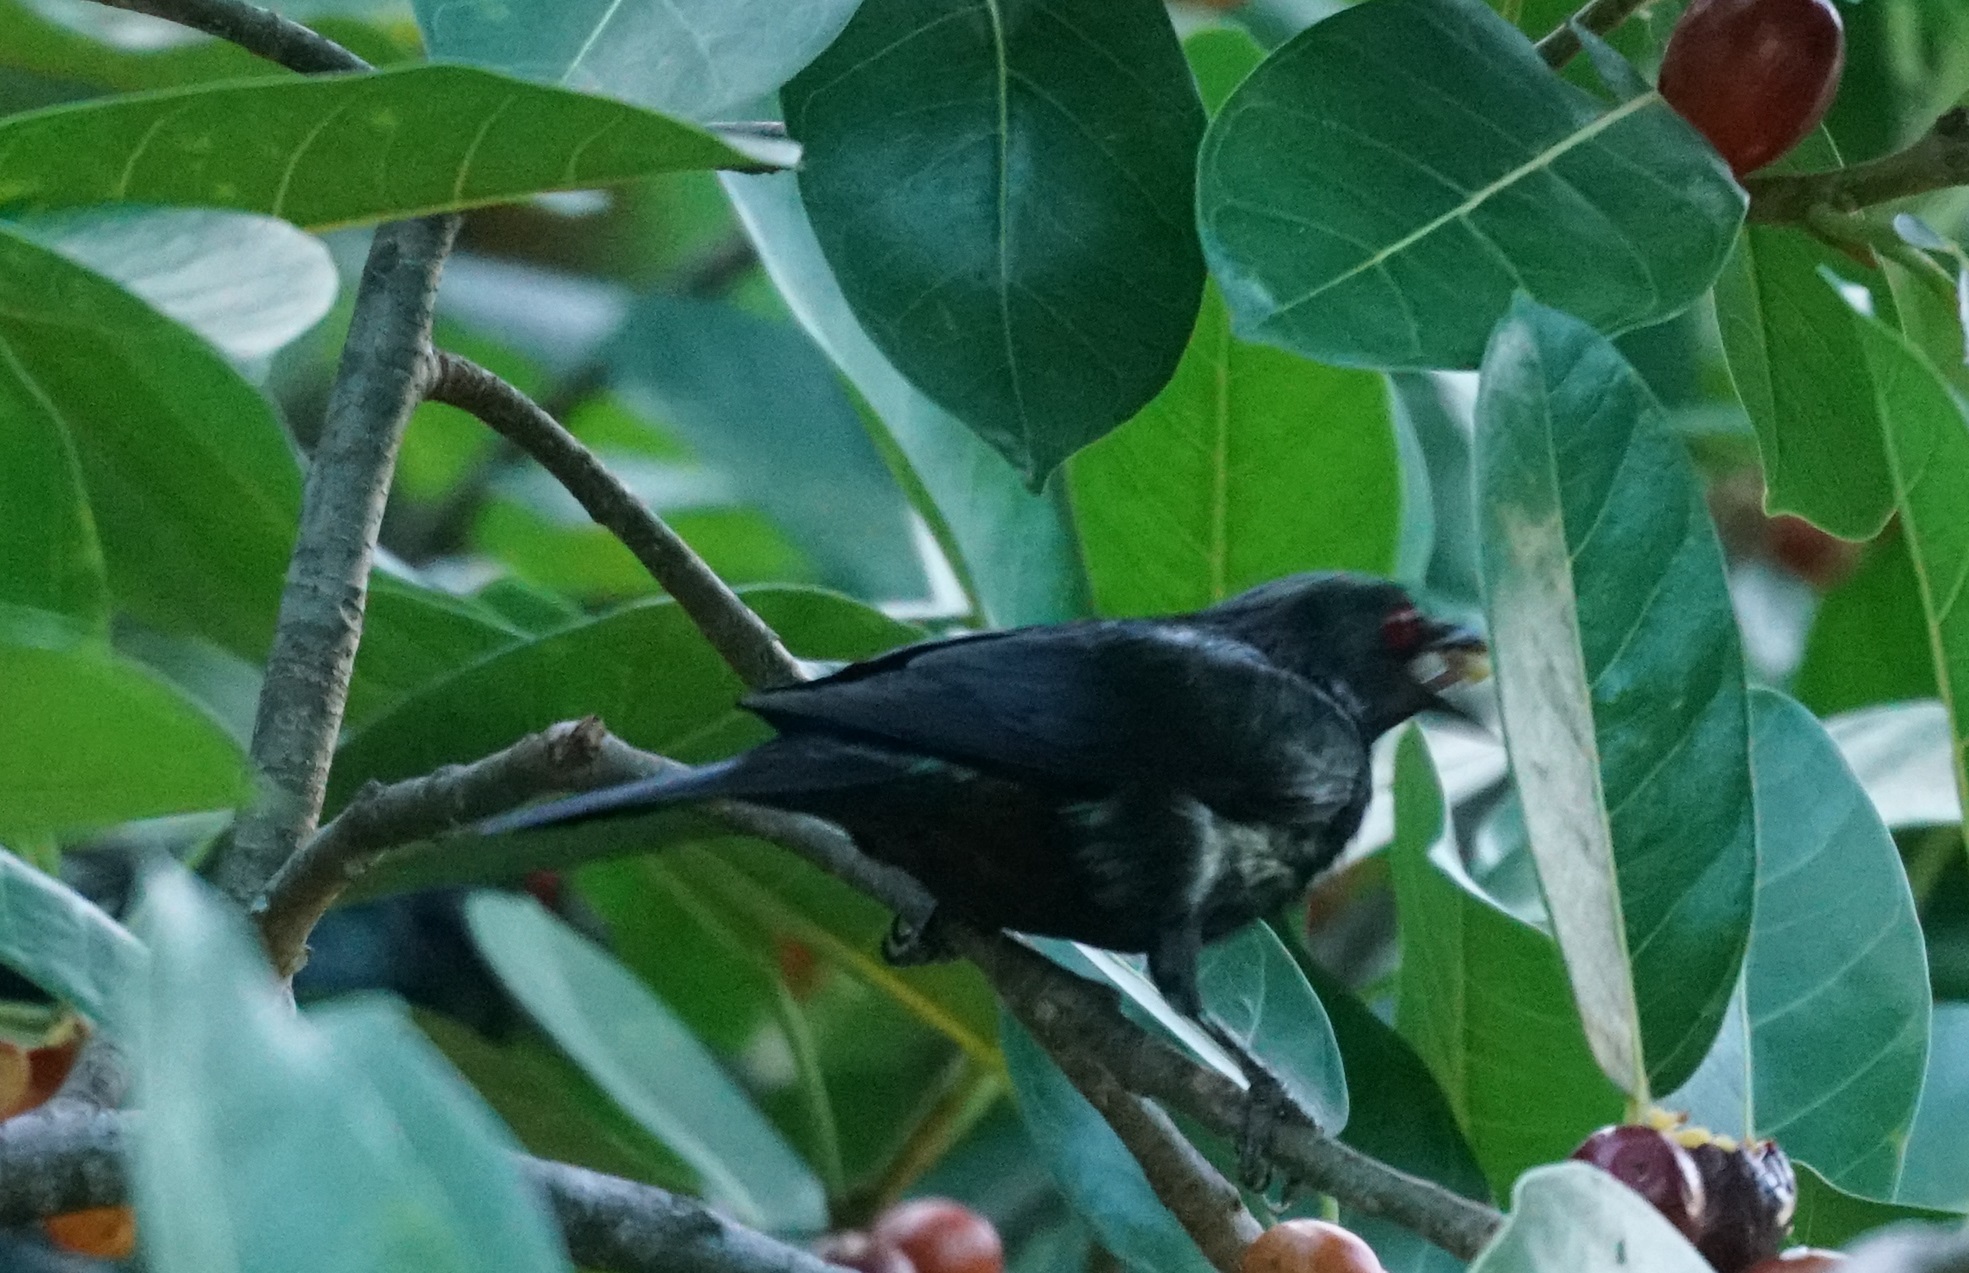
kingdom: Animalia
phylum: Chordata
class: Aves
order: Passeriformes
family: Sturnidae
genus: Aplonis
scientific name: Aplonis metallica
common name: Metallic starling
